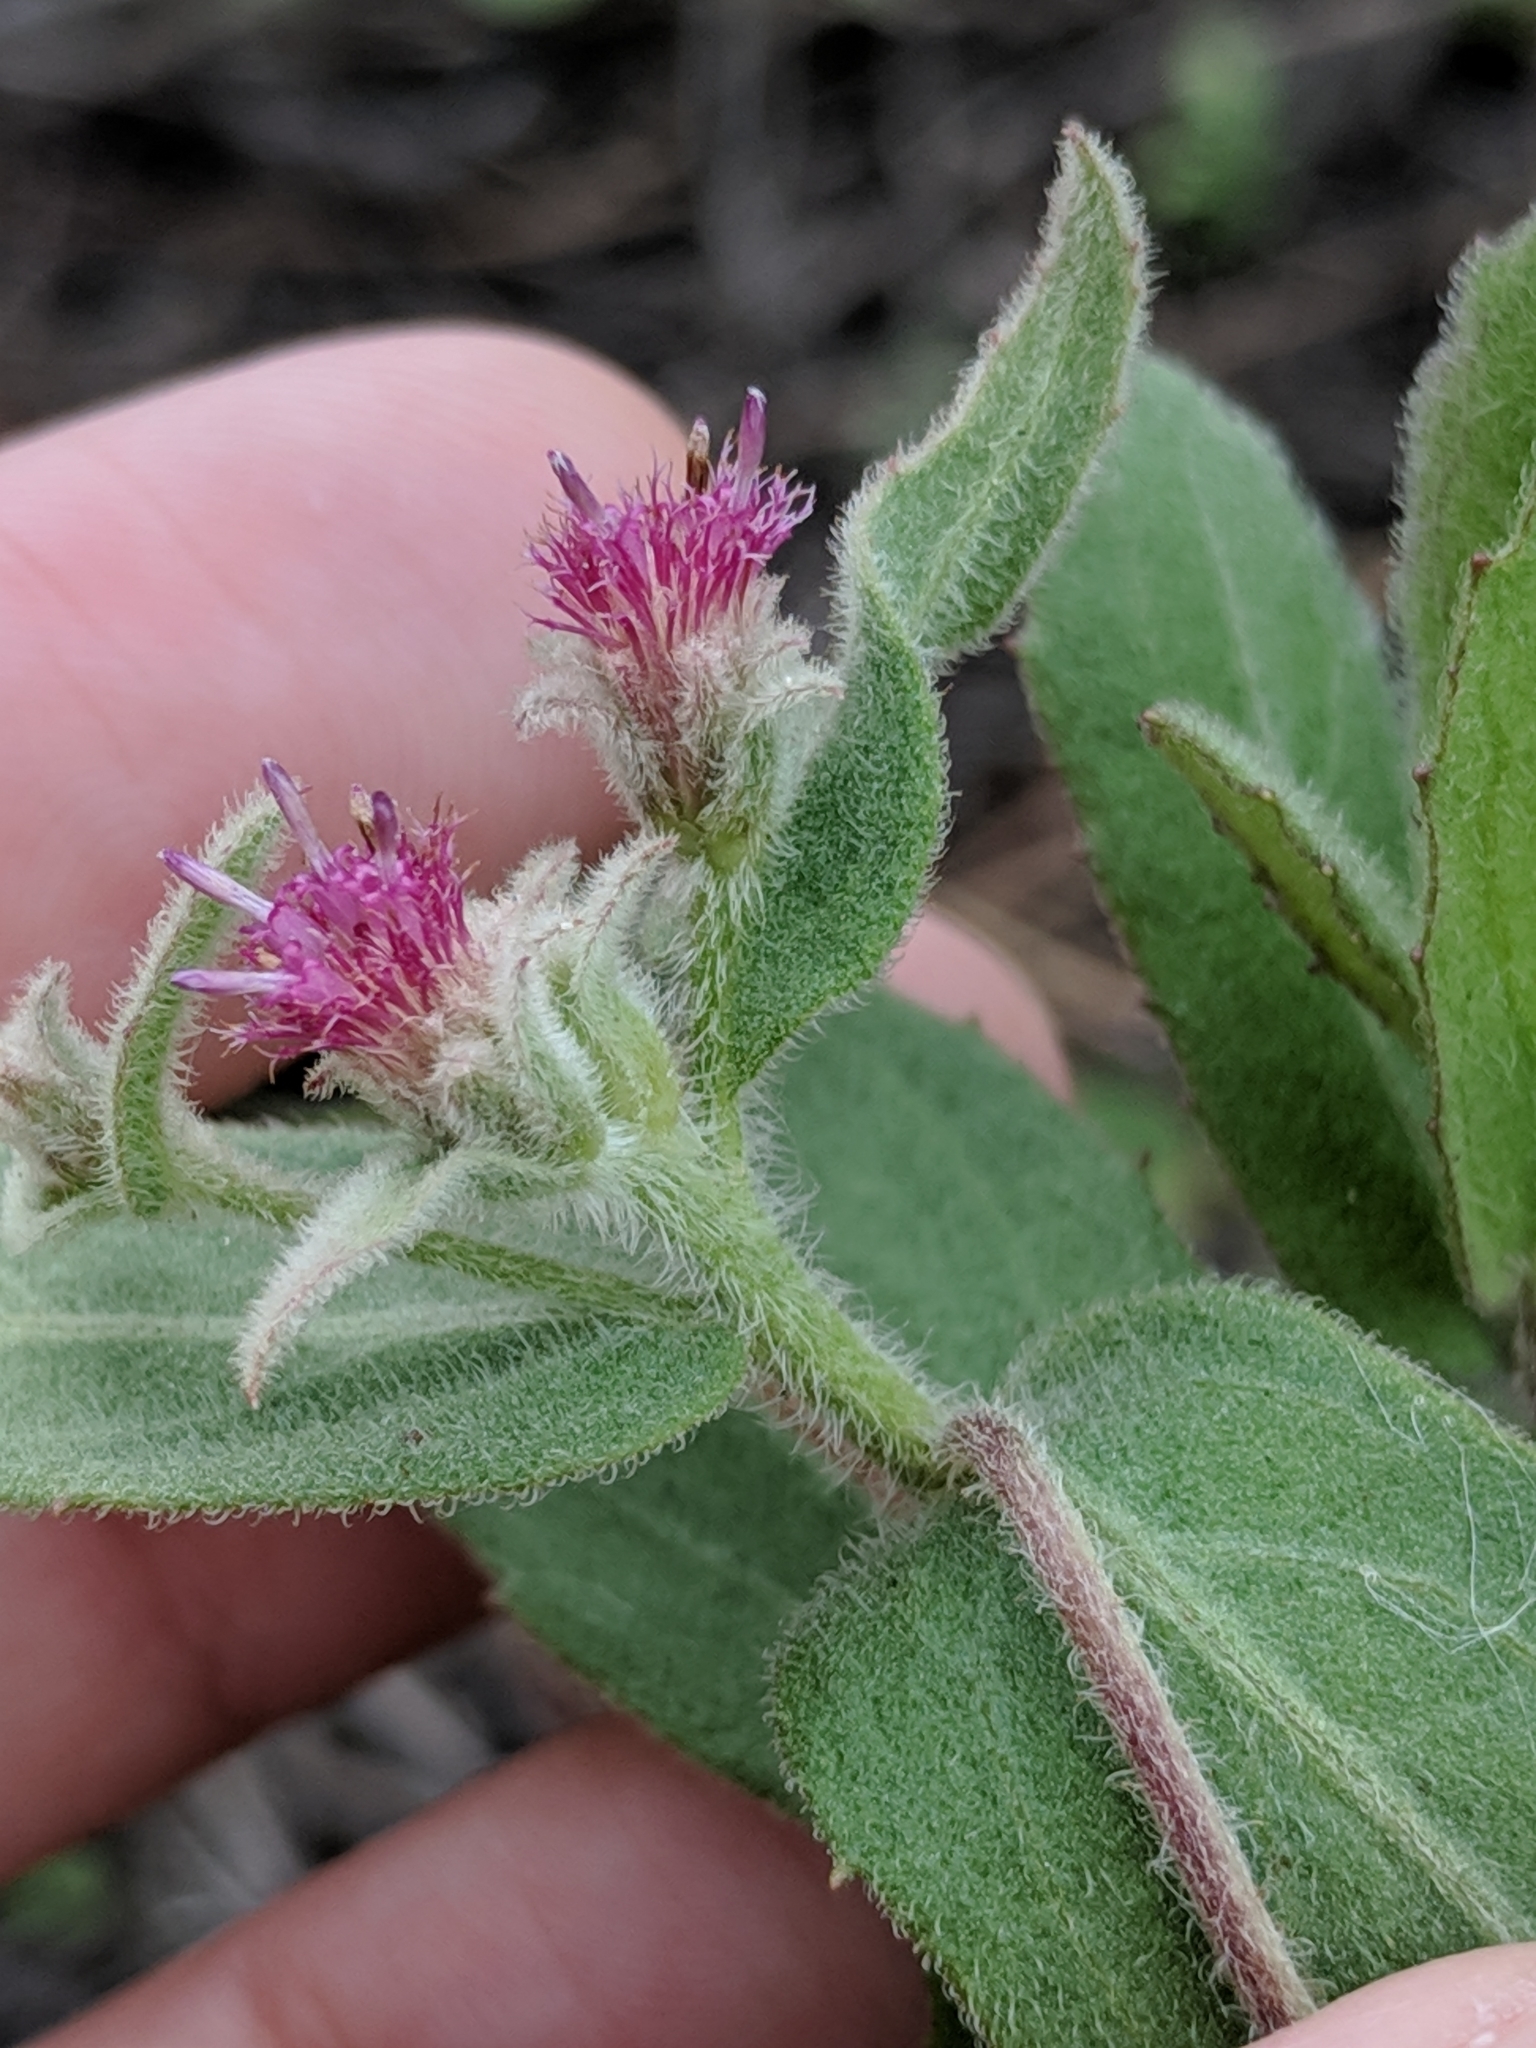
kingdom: Plantae
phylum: Tracheophyta
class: Magnoliopsida
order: Asterales
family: Asteraceae
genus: Pluchea
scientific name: Pluchea baccharis
